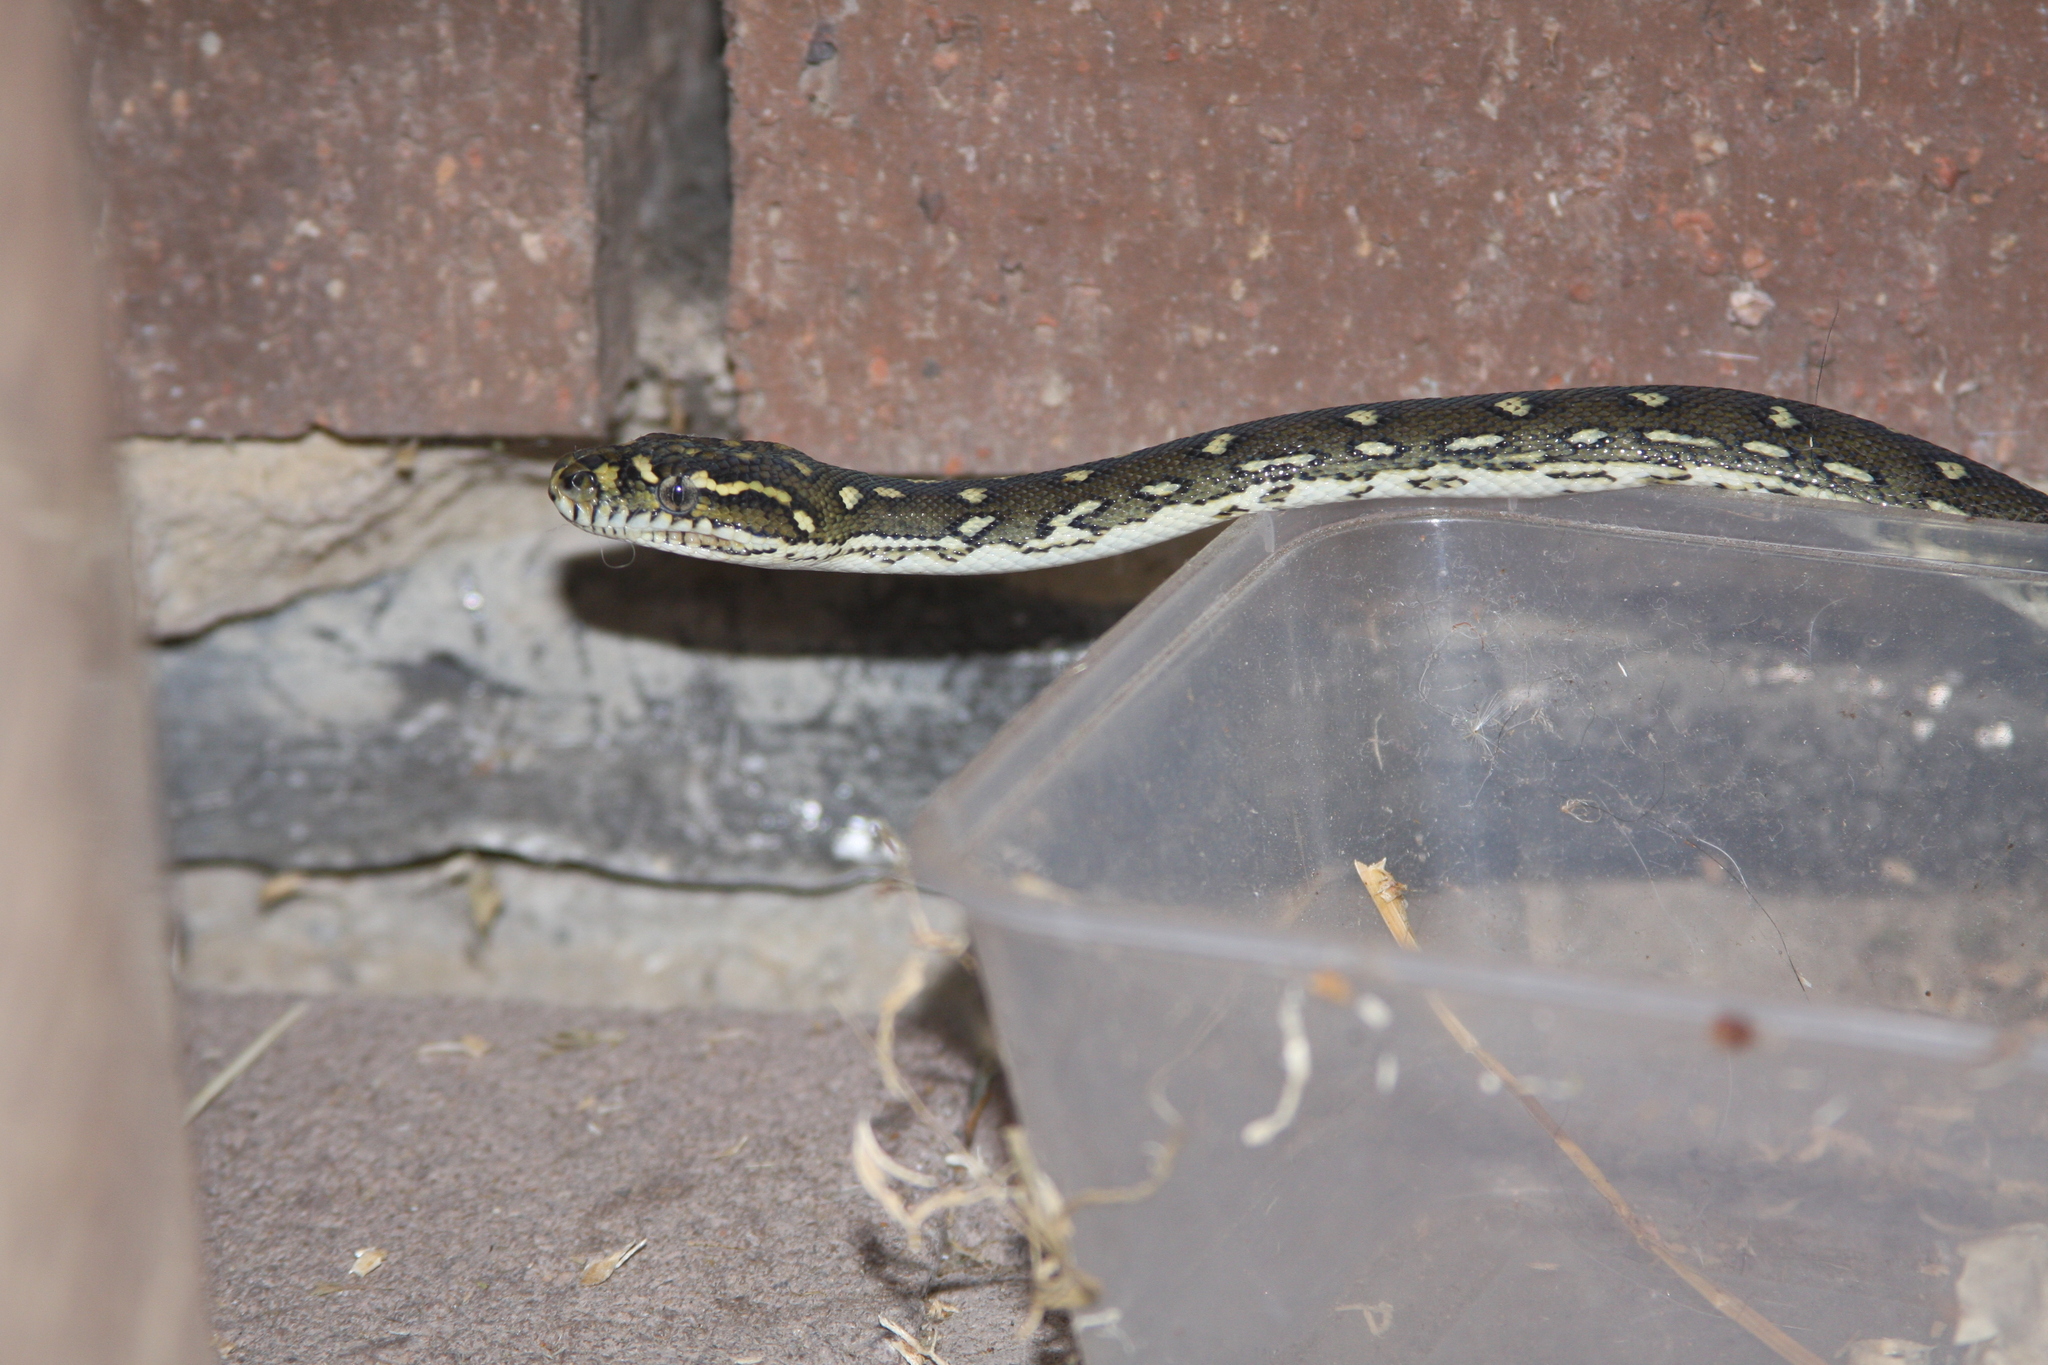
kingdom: Animalia
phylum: Chordata
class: Squamata
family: Pythonidae
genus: Morelia
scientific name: Morelia spilota
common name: Carpet python
